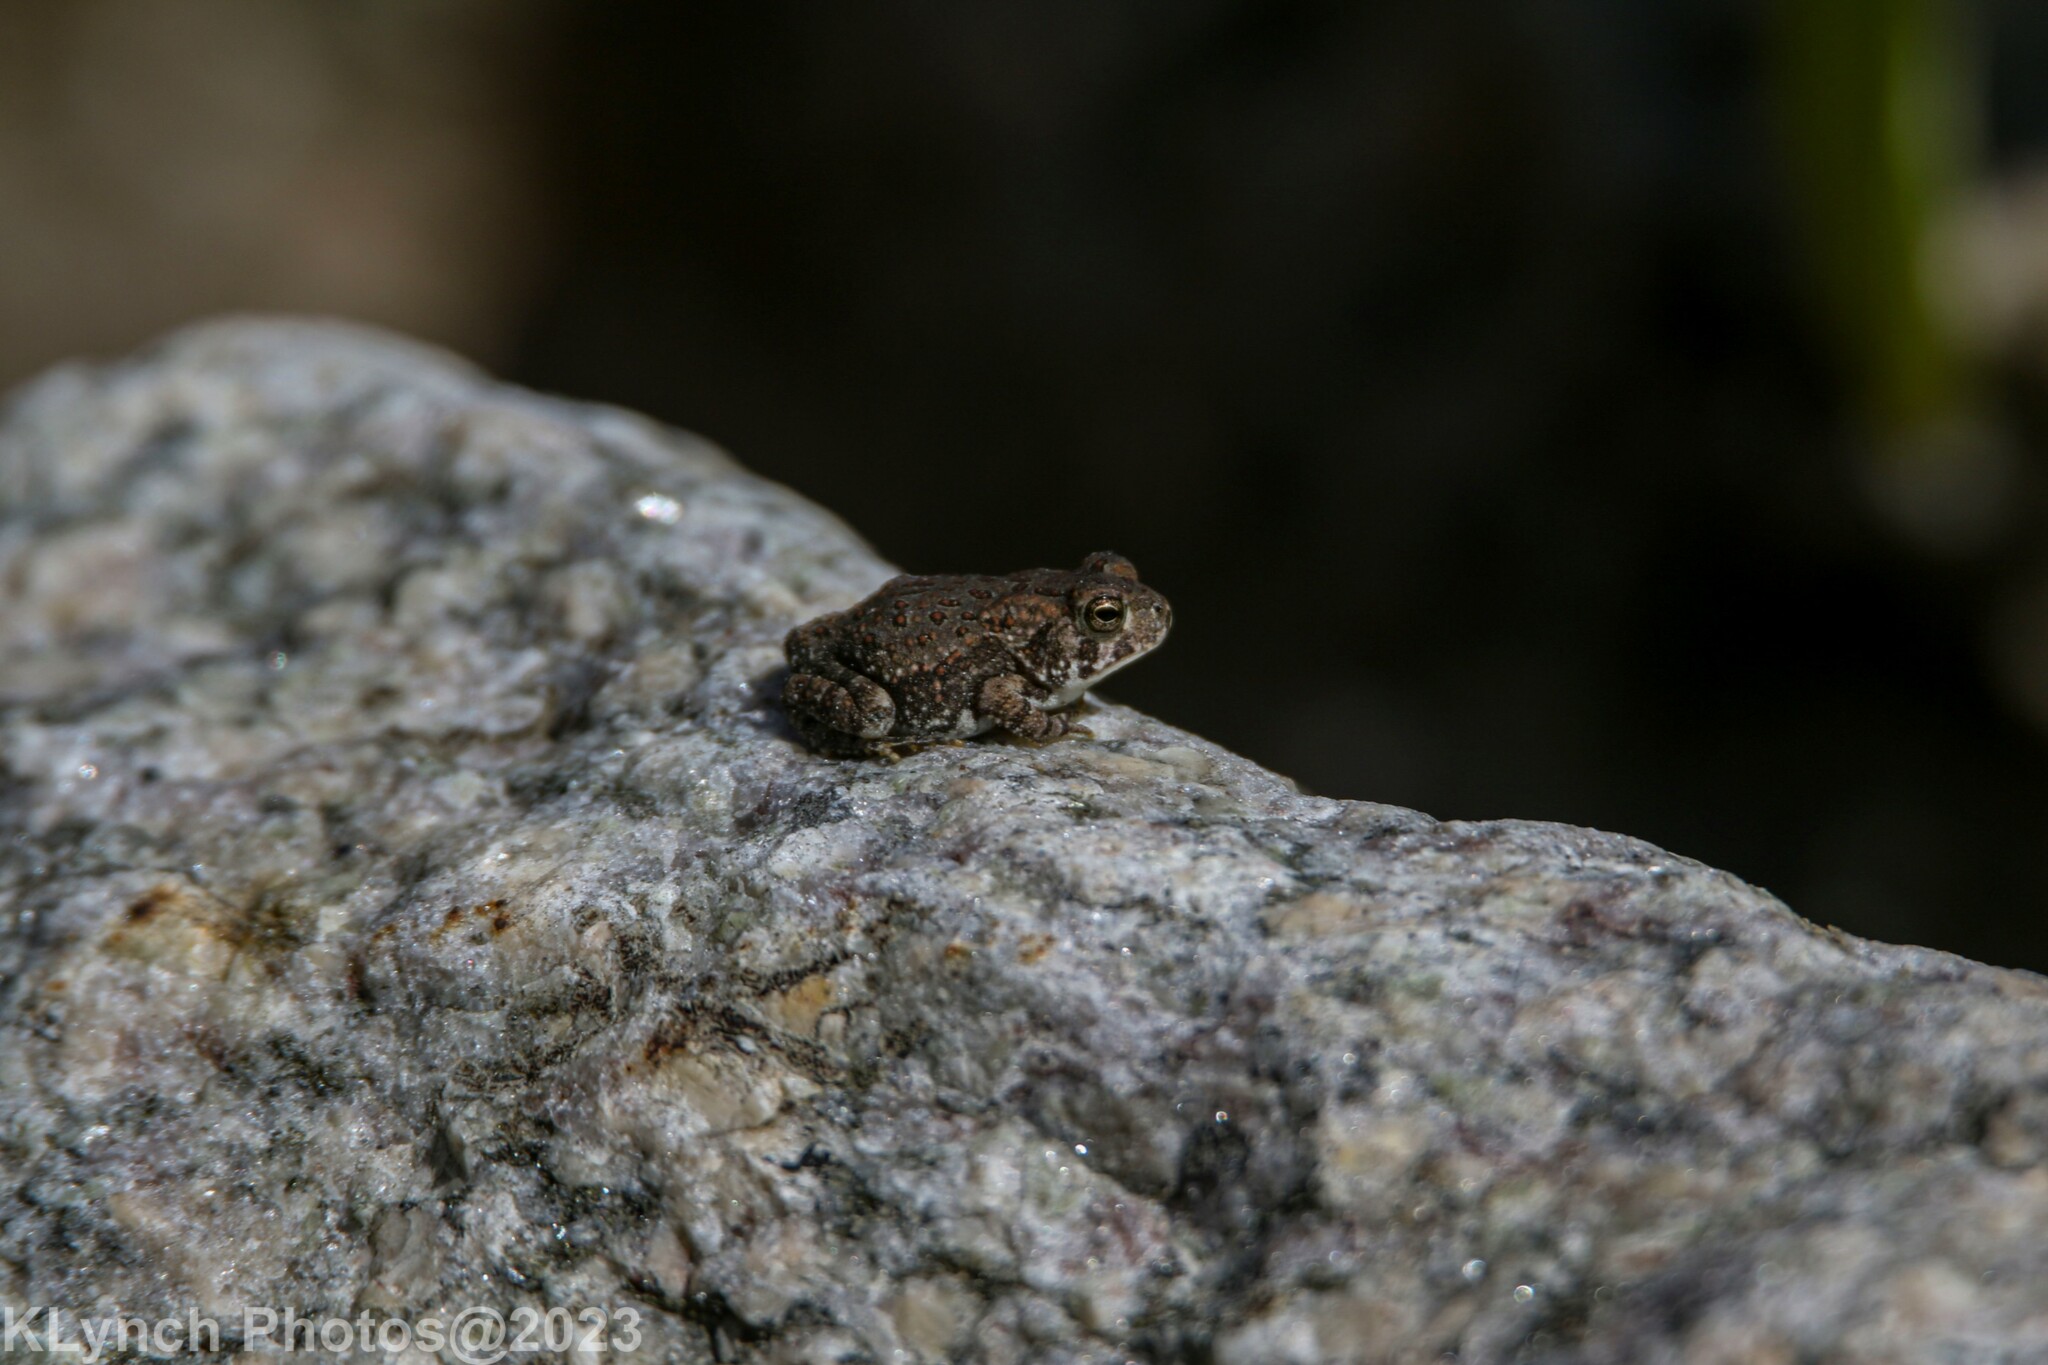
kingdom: Animalia
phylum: Chordata
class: Amphibia
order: Anura
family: Bufonidae
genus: Anaxyrus
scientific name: Anaxyrus fowleri
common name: Fowler's toad
